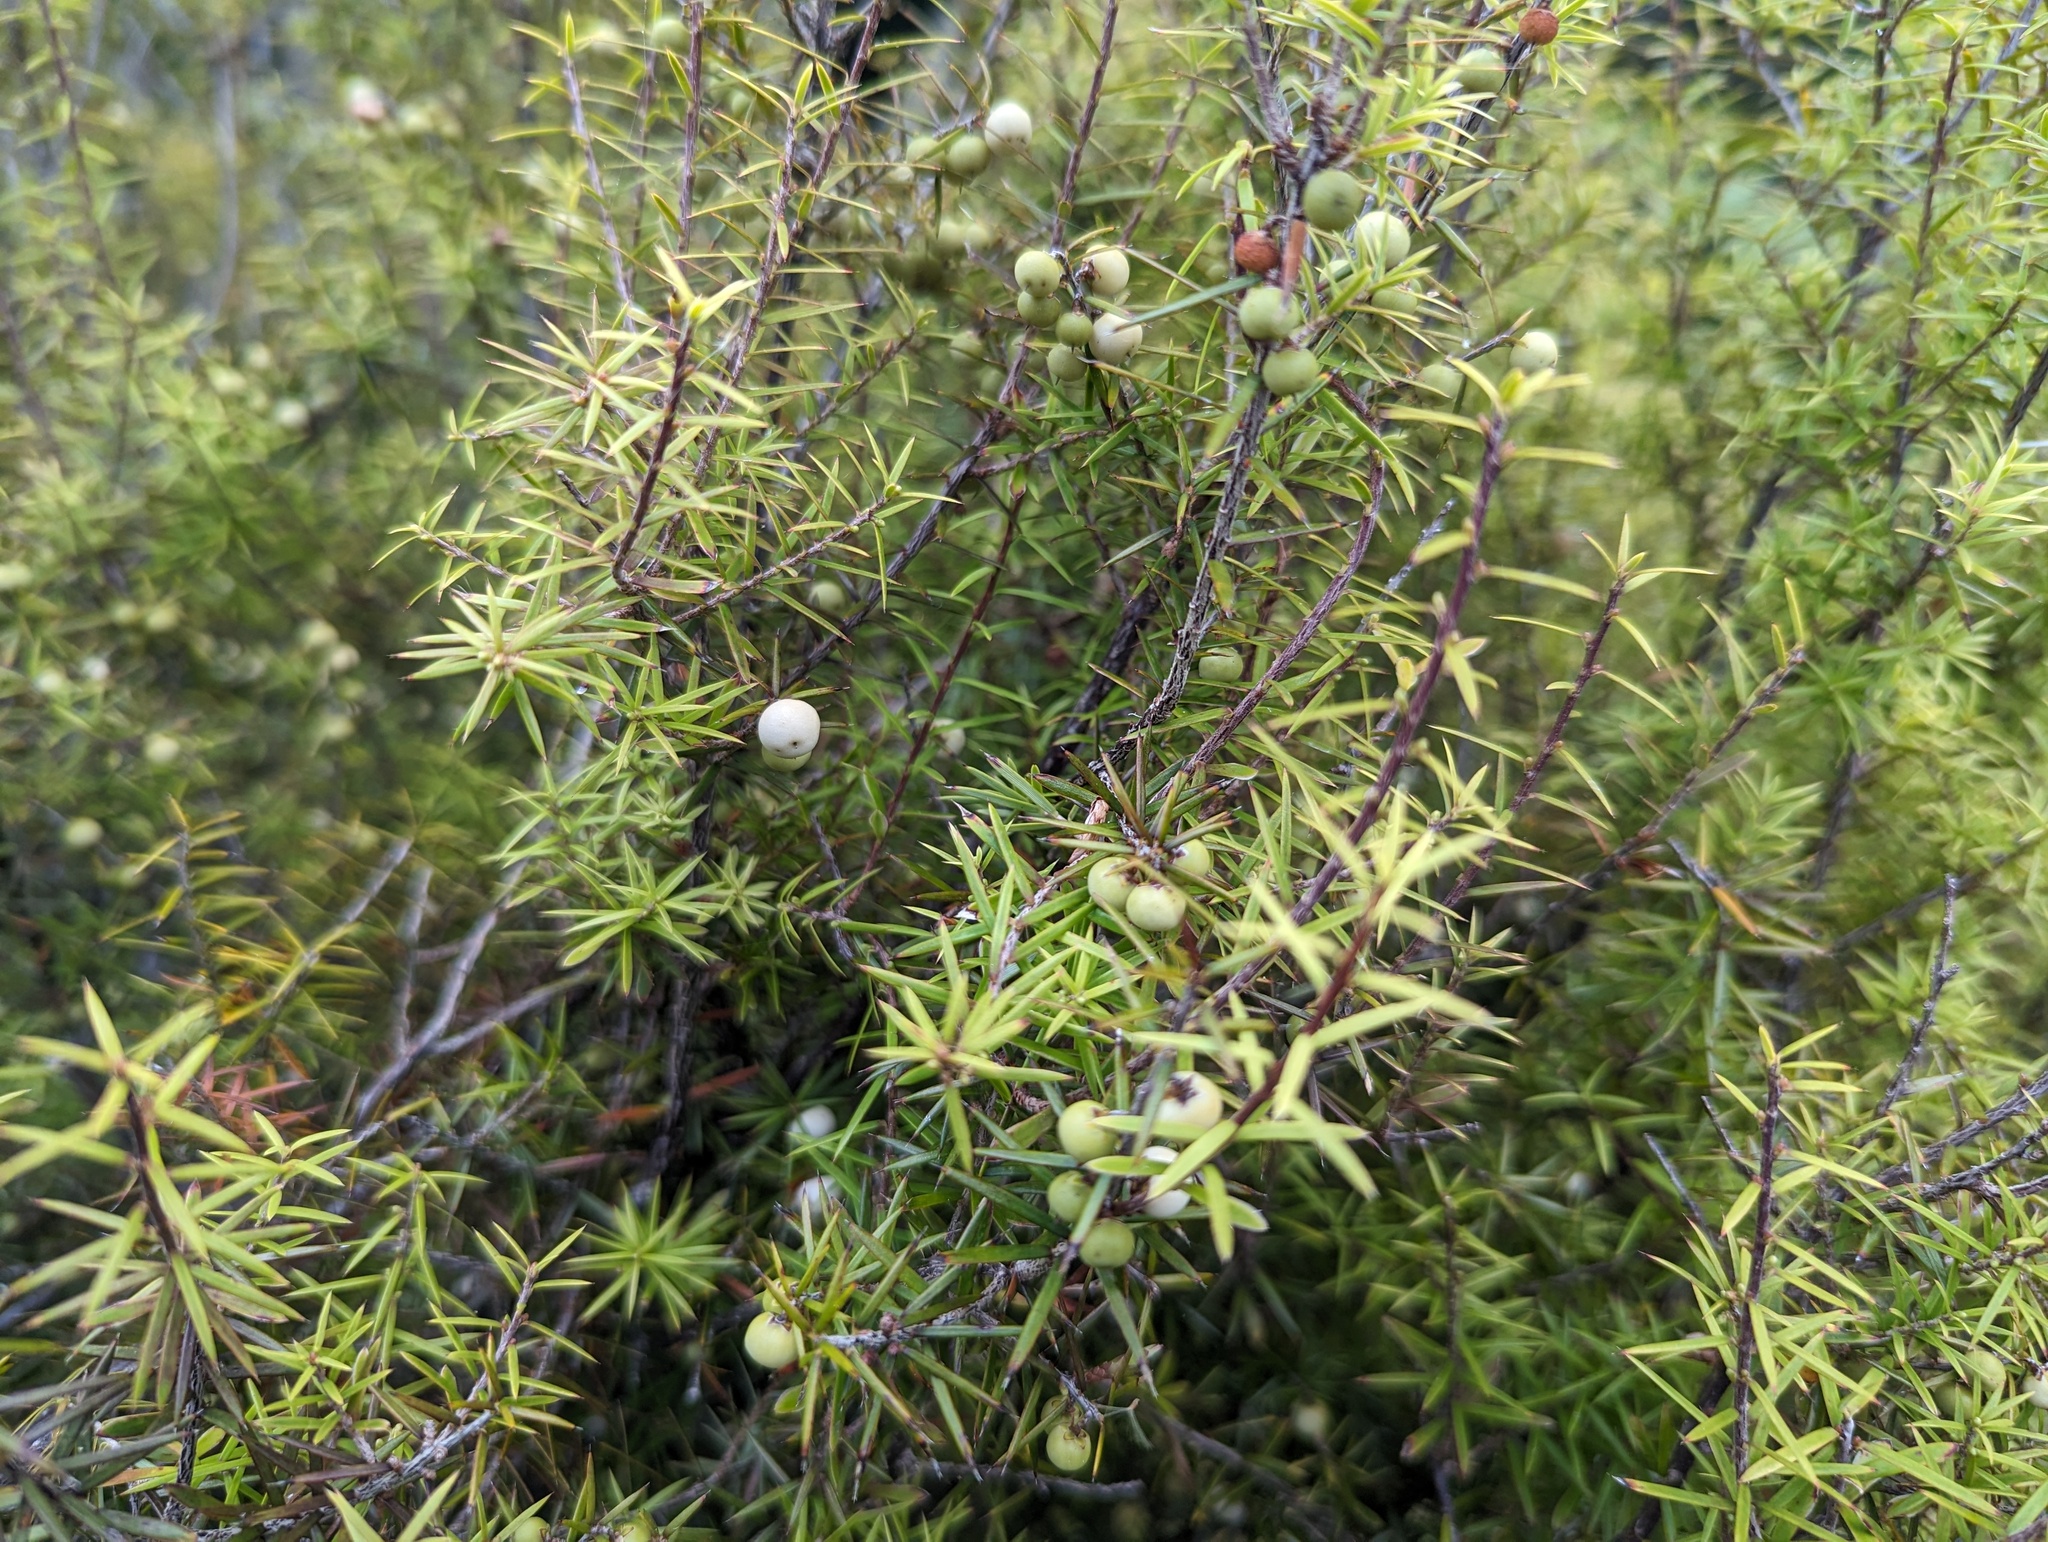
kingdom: Plantae
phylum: Tracheophyta
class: Magnoliopsida
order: Ericales
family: Ericaceae
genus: Leptecophylla
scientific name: Leptecophylla juniperina
